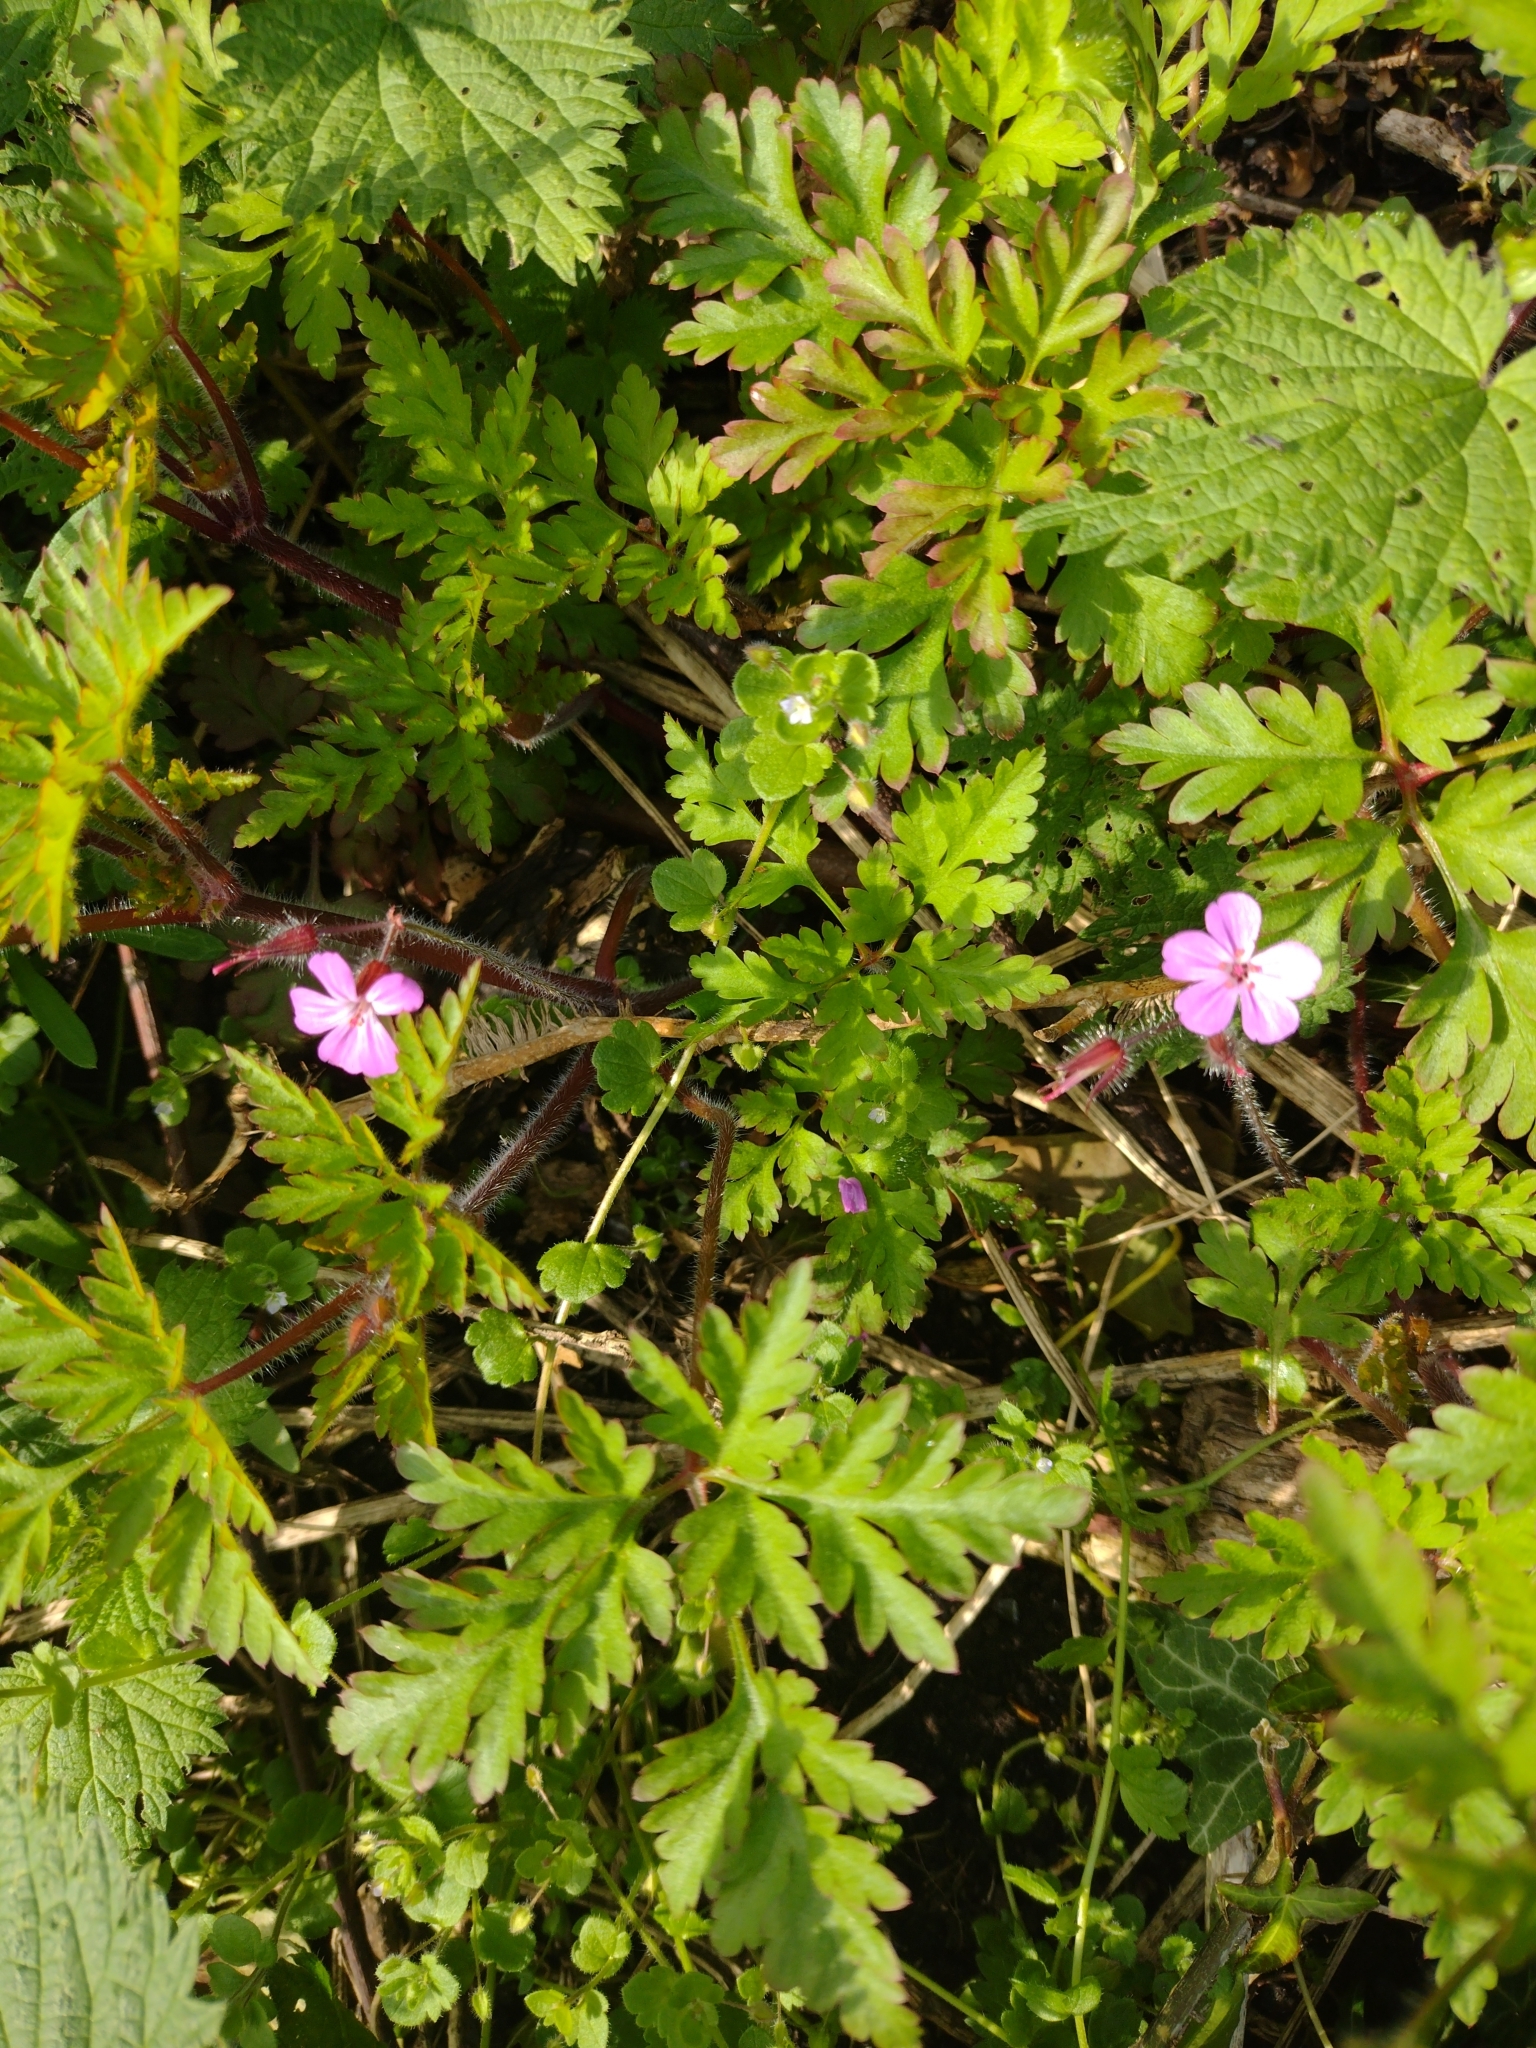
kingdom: Plantae
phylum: Tracheophyta
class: Magnoliopsida
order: Geraniales
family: Geraniaceae
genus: Geranium
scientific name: Geranium robertianum
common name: Herb-robert
